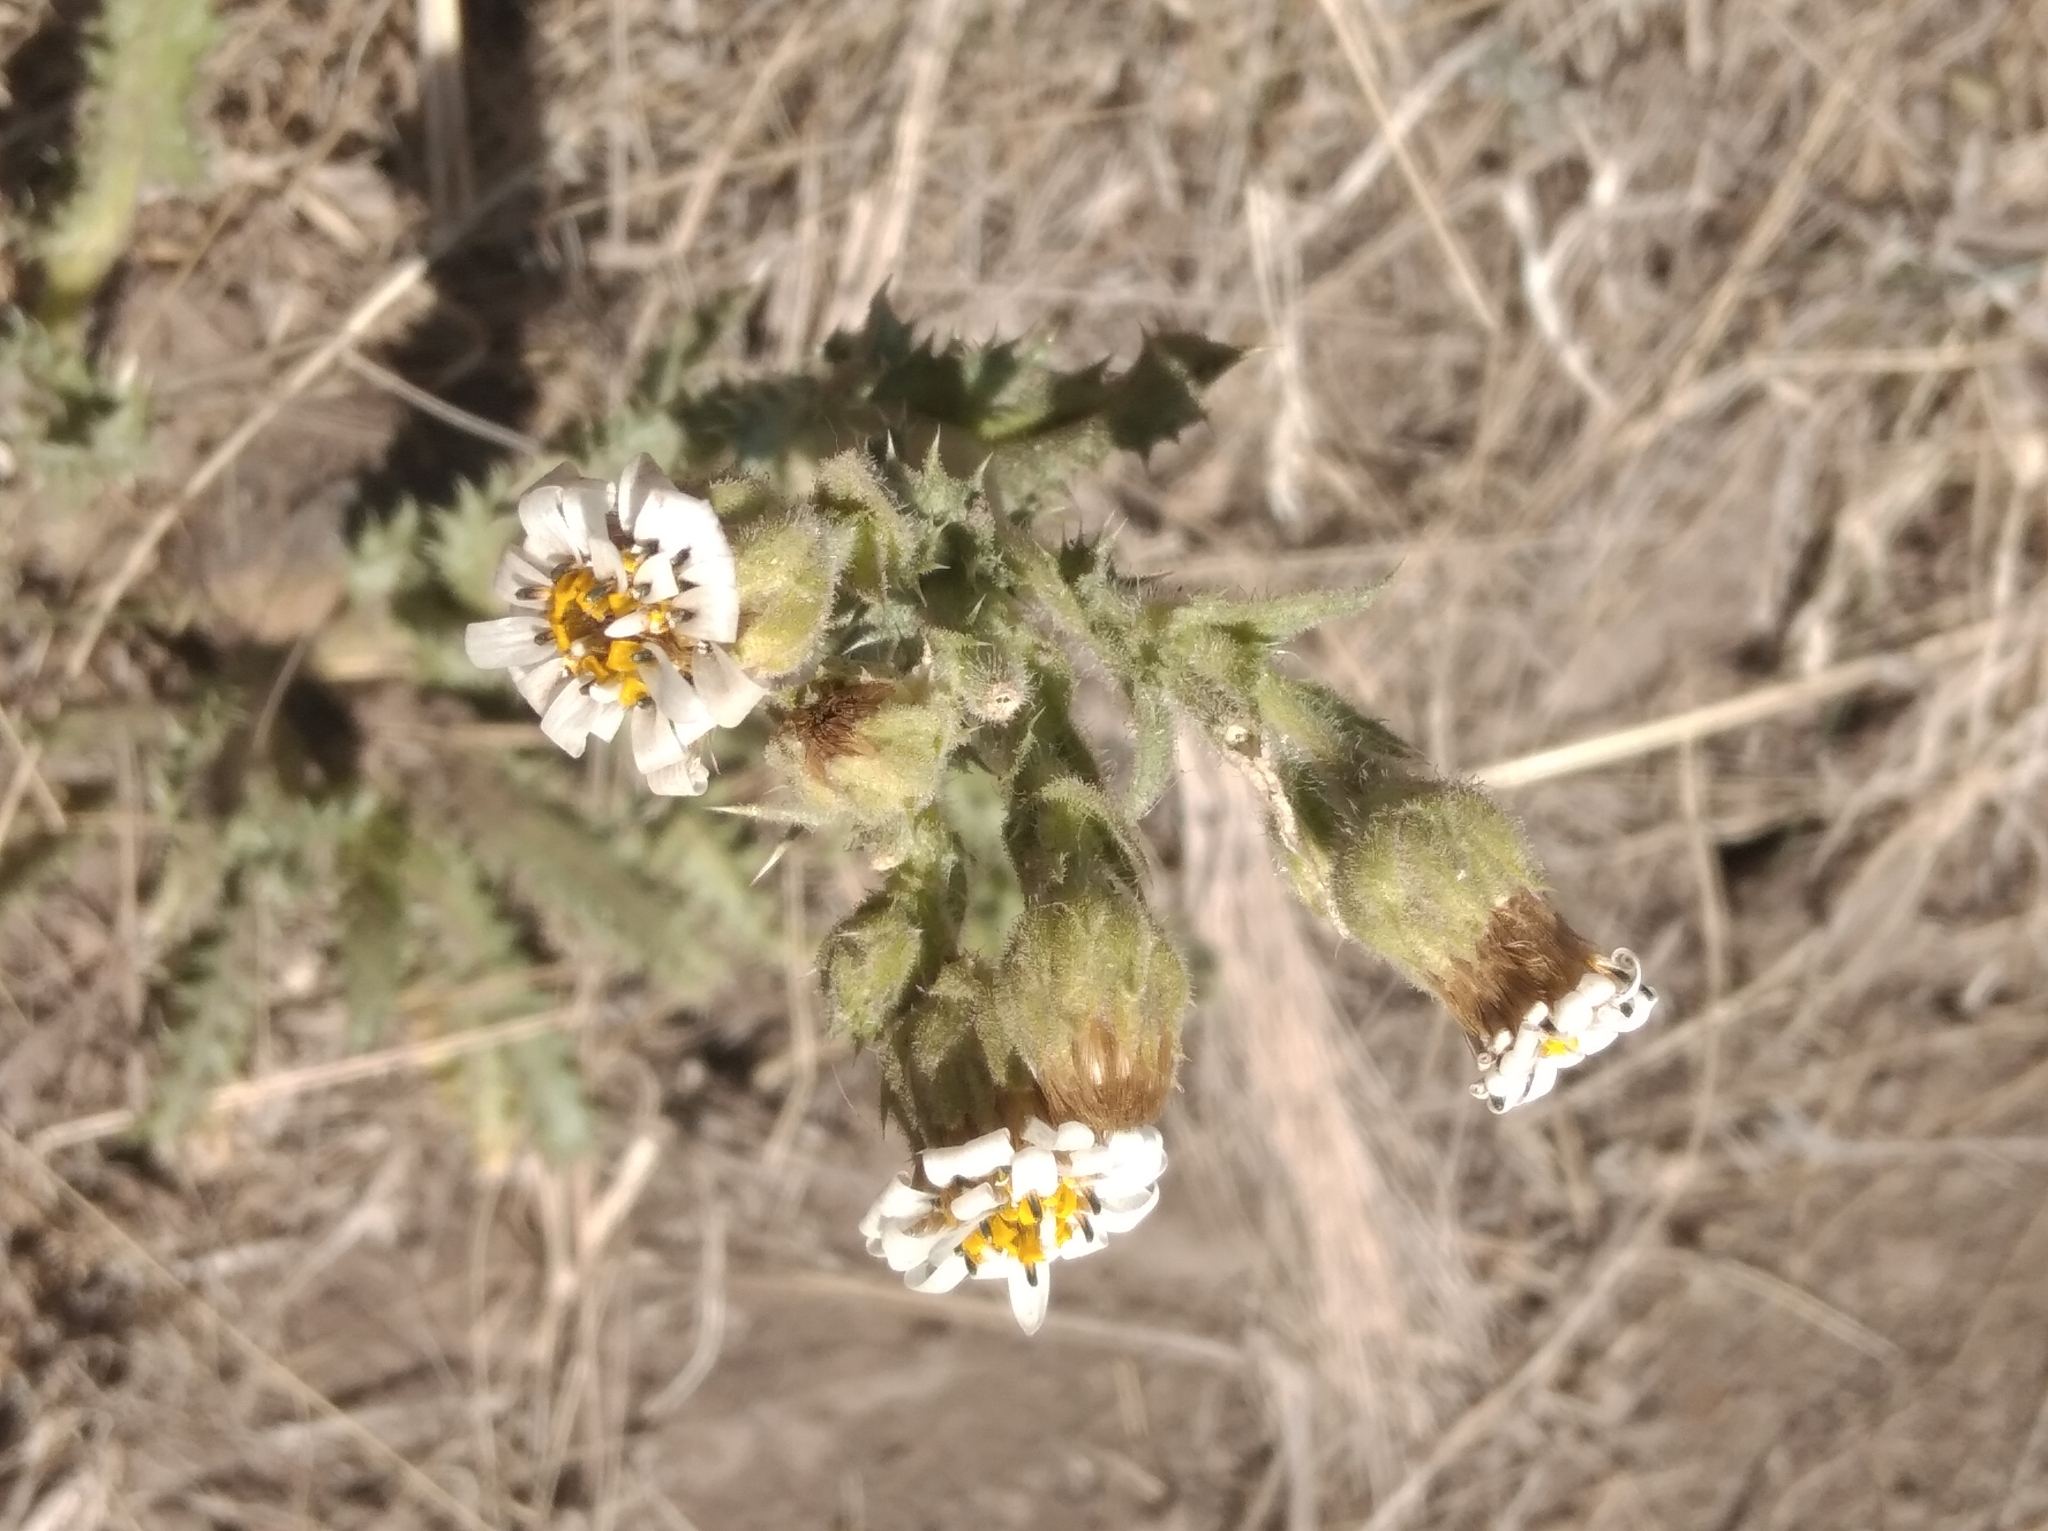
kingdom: Plantae
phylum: Tracheophyta
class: Magnoliopsida
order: Asterales
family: Asteraceae
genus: Perezia
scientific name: Perezia multiflora
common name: Perezia
